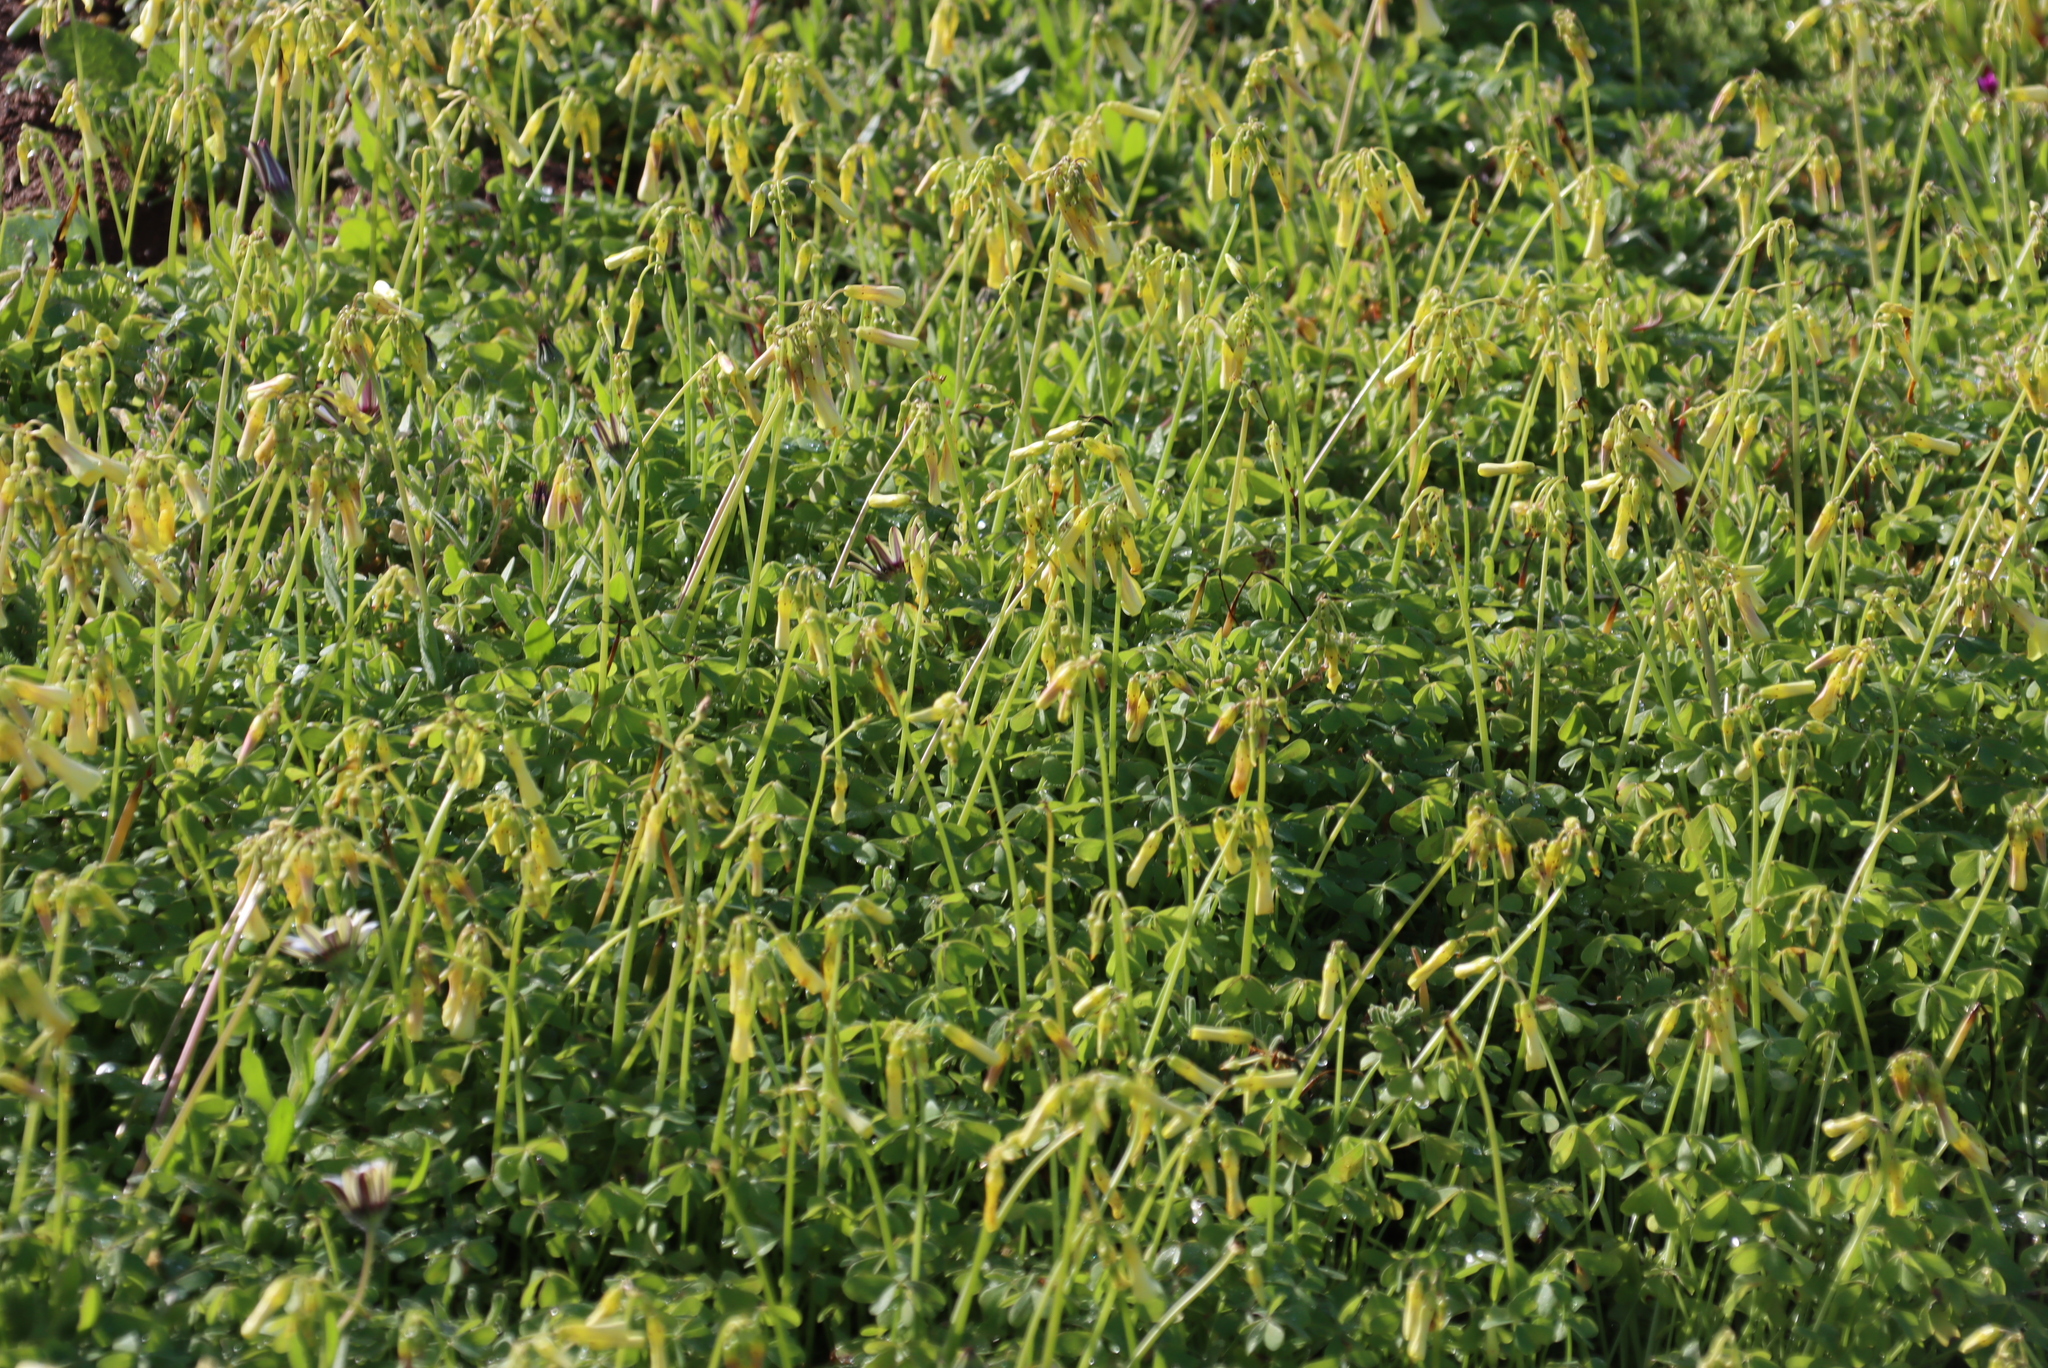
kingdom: Plantae
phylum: Tracheophyta
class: Magnoliopsida
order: Oxalidales
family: Oxalidaceae
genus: Oxalis
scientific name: Oxalis pes-caprae
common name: Bermuda-buttercup
